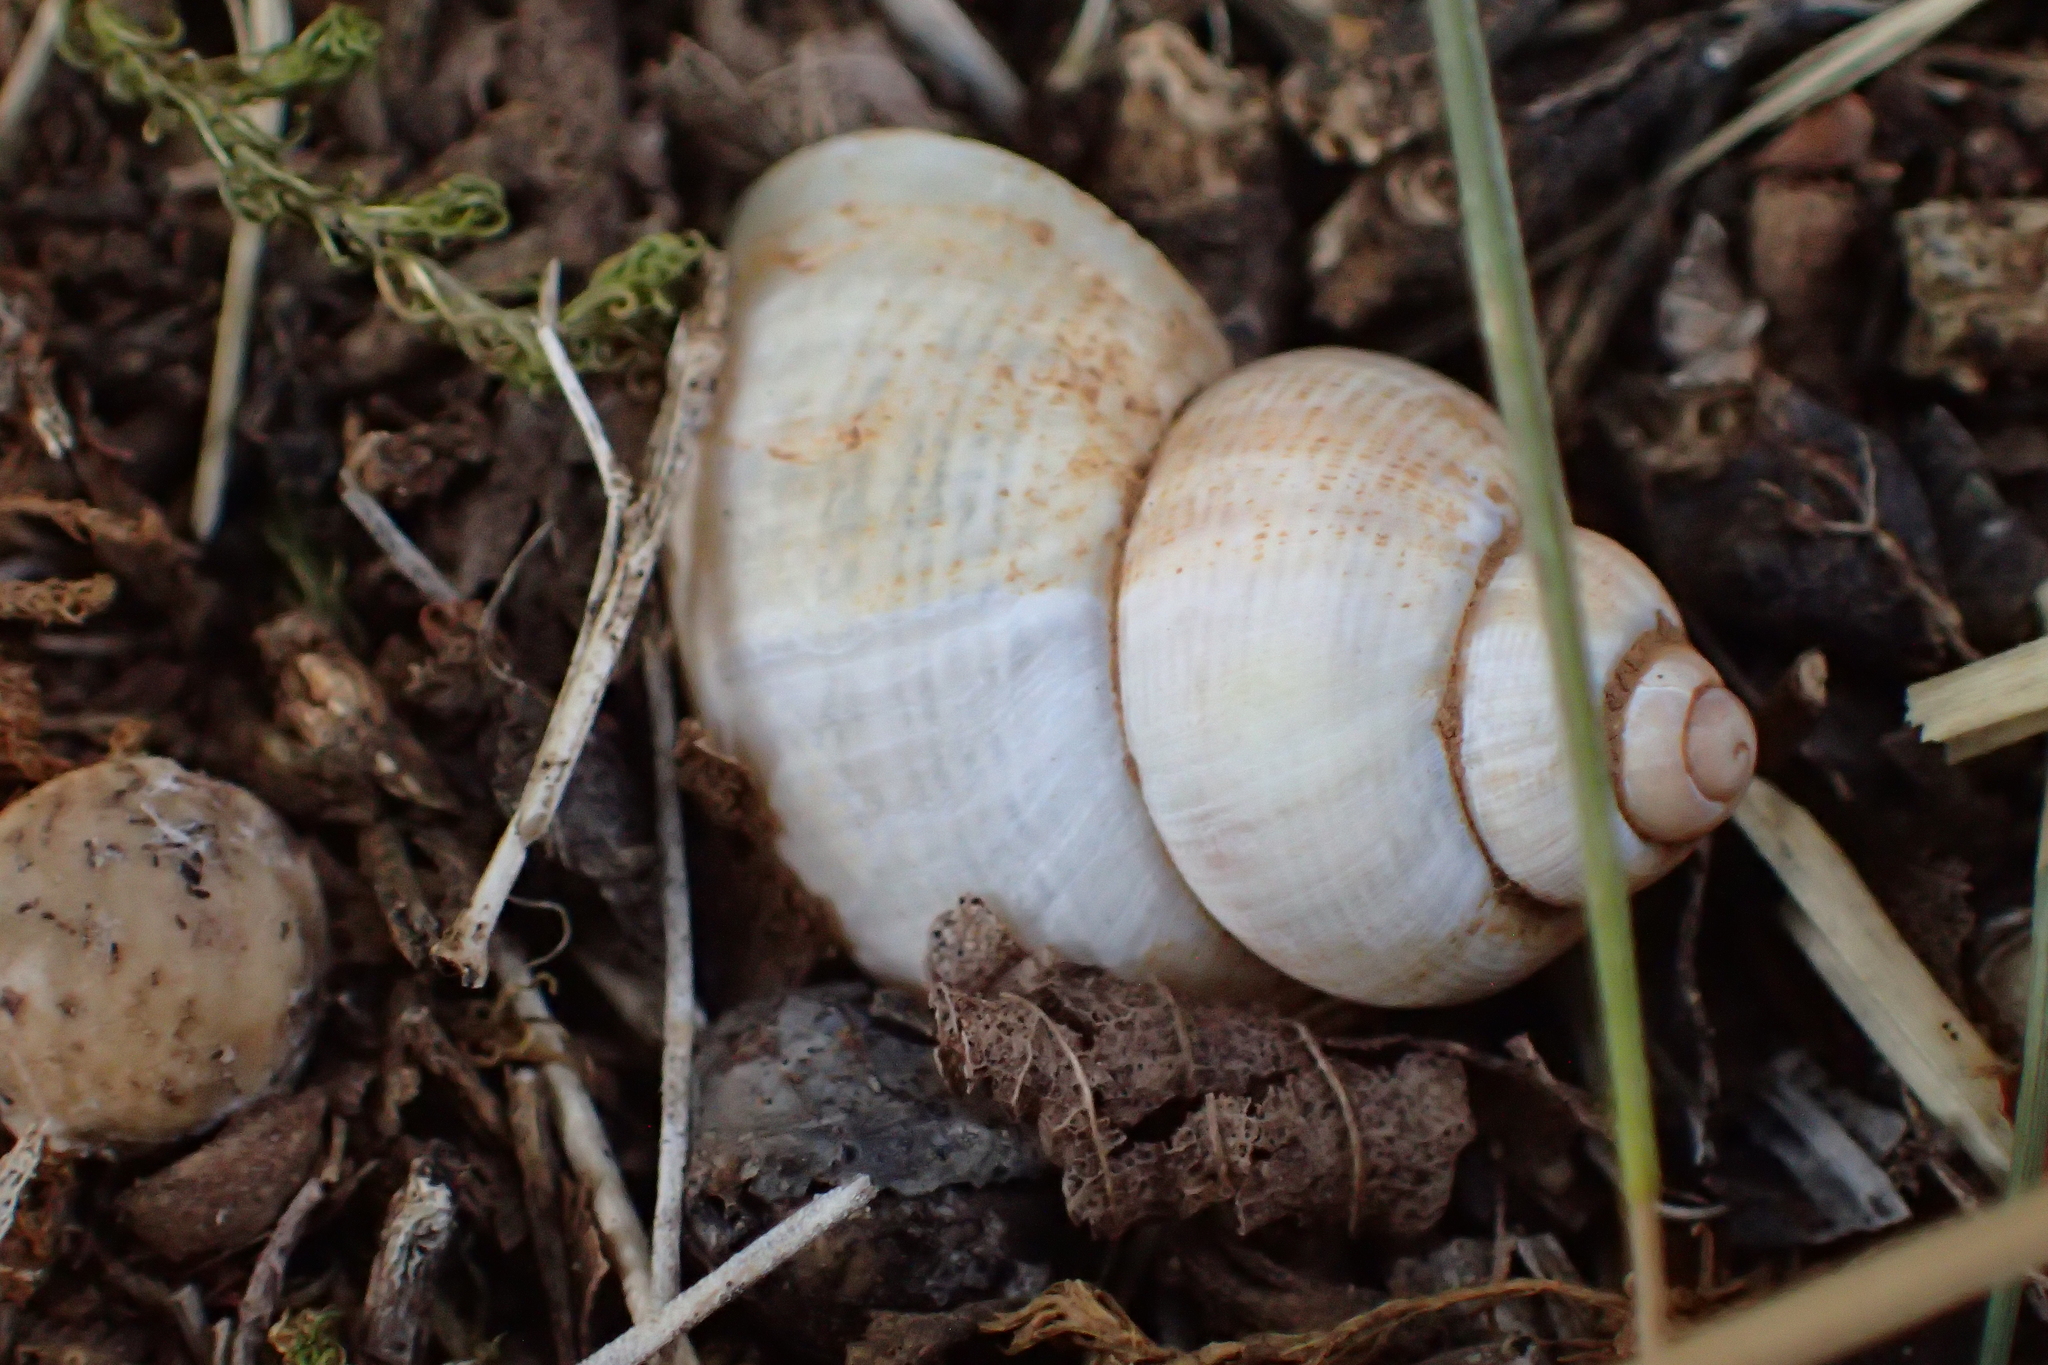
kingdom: Animalia
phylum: Mollusca
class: Gastropoda
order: Littorinimorpha
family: Pomatiidae
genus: Pomatias
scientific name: Pomatias elegans
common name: Red-mouthed snail
